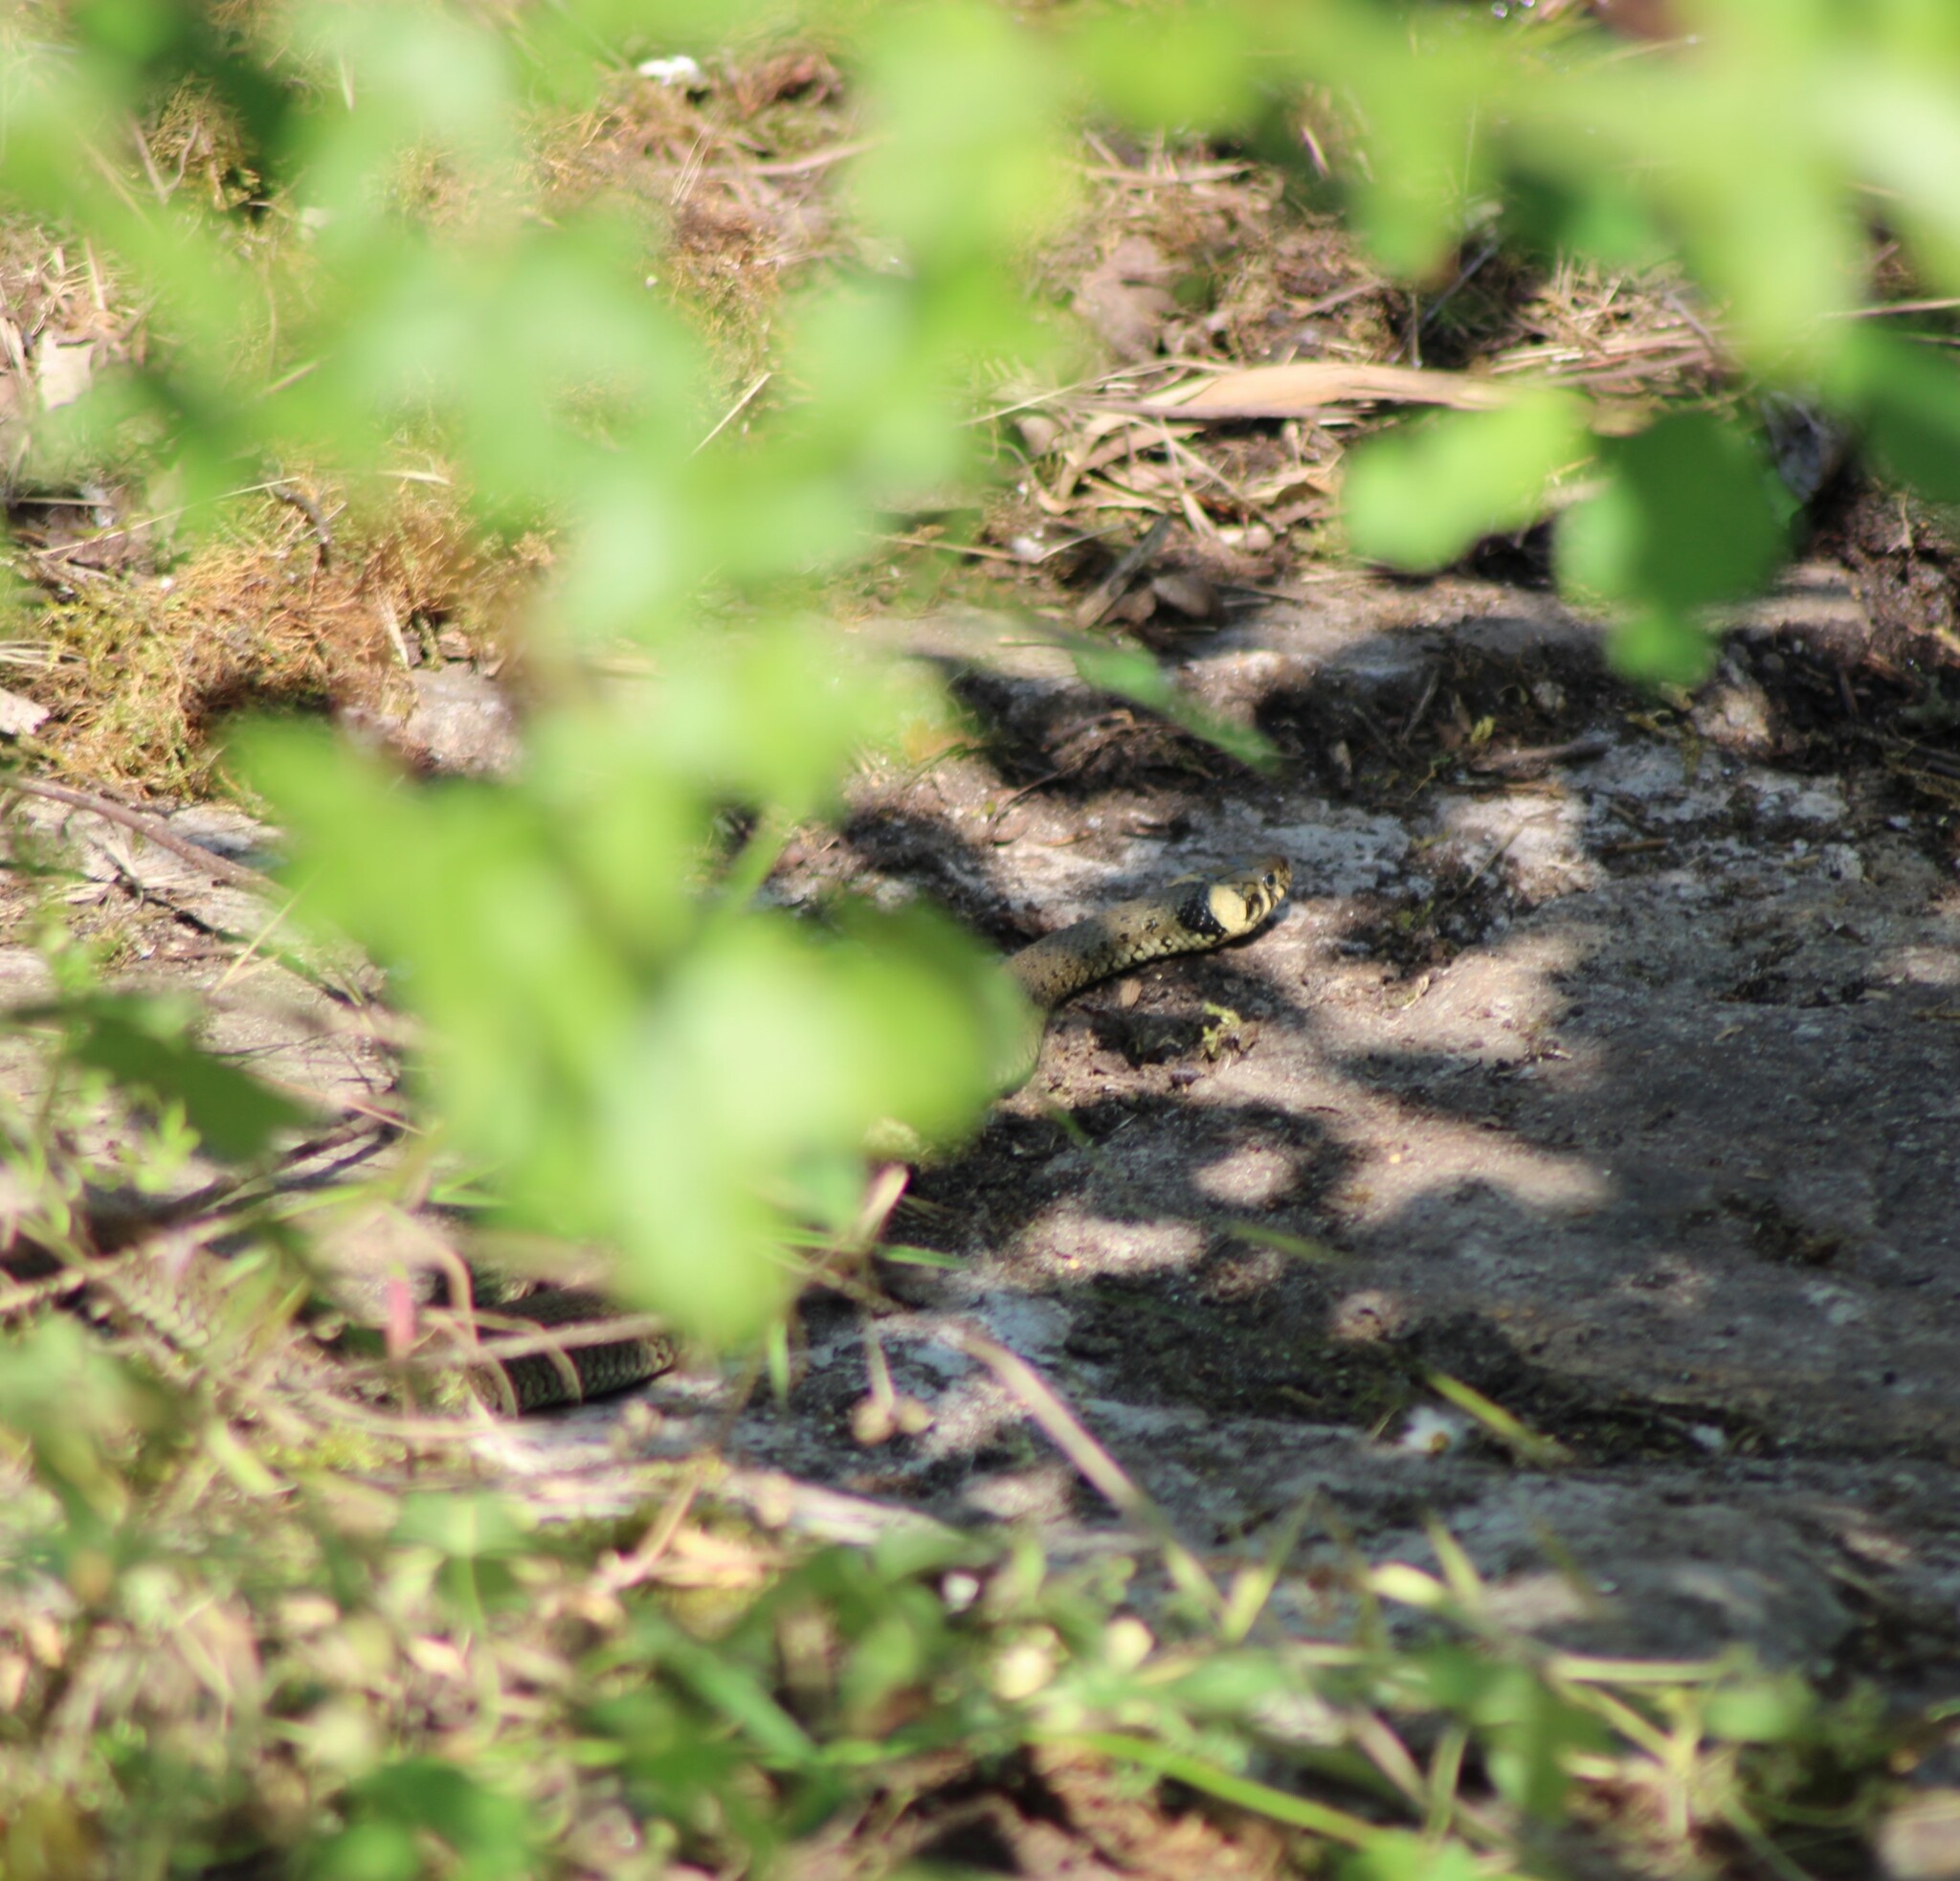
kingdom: Animalia
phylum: Chordata
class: Squamata
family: Colubridae
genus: Natrix
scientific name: Natrix natrix
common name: Grass snake
